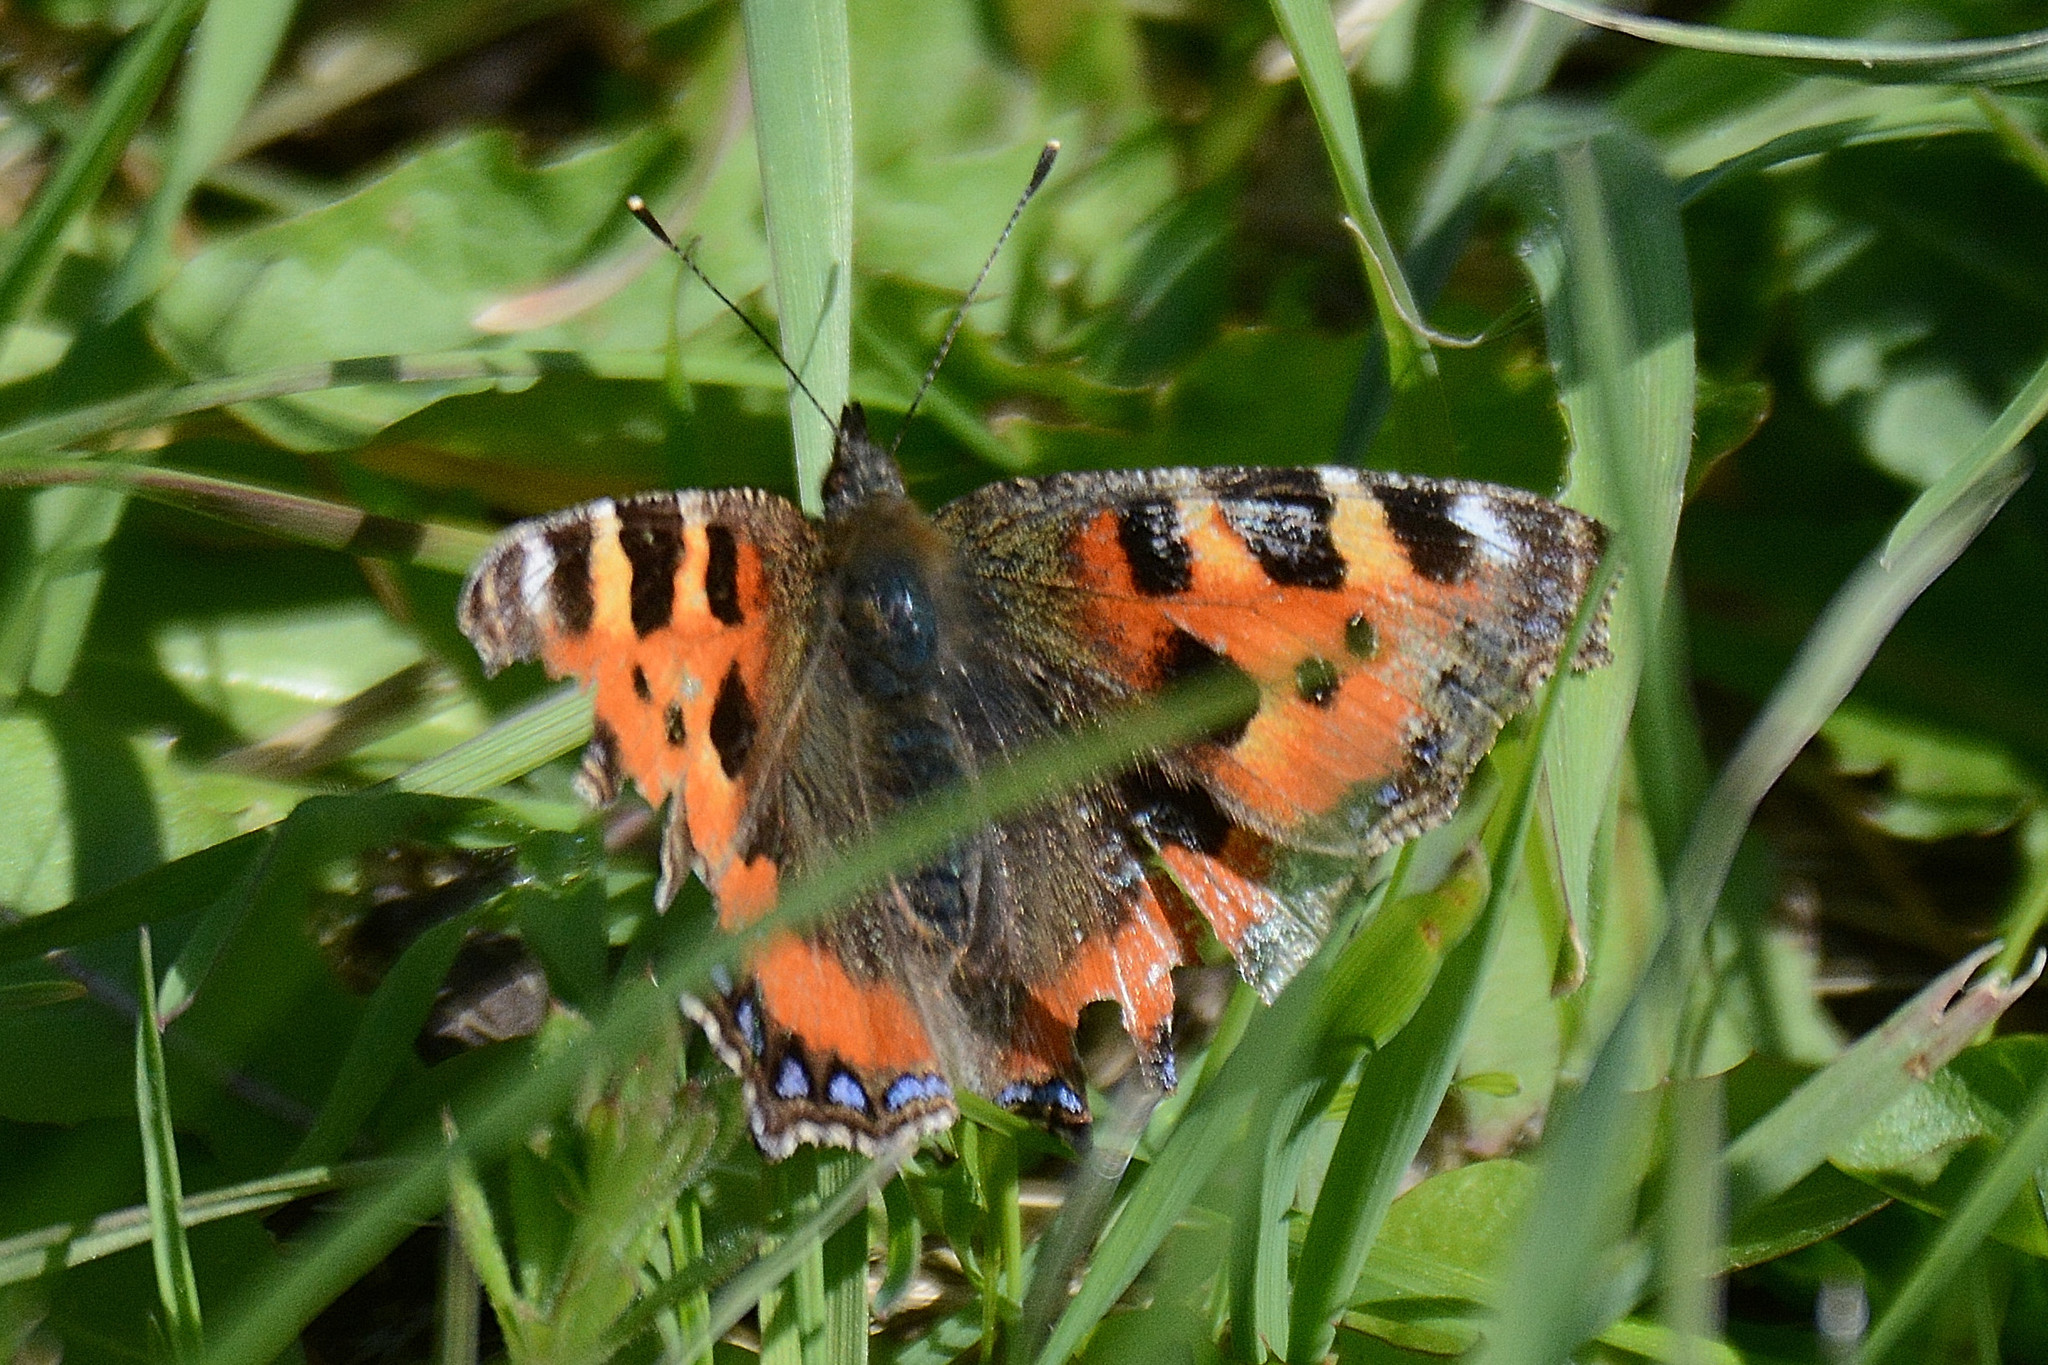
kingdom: Animalia
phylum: Arthropoda
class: Insecta
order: Lepidoptera
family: Nymphalidae
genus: Aglais
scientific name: Aglais urticae
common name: Small tortoiseshell
